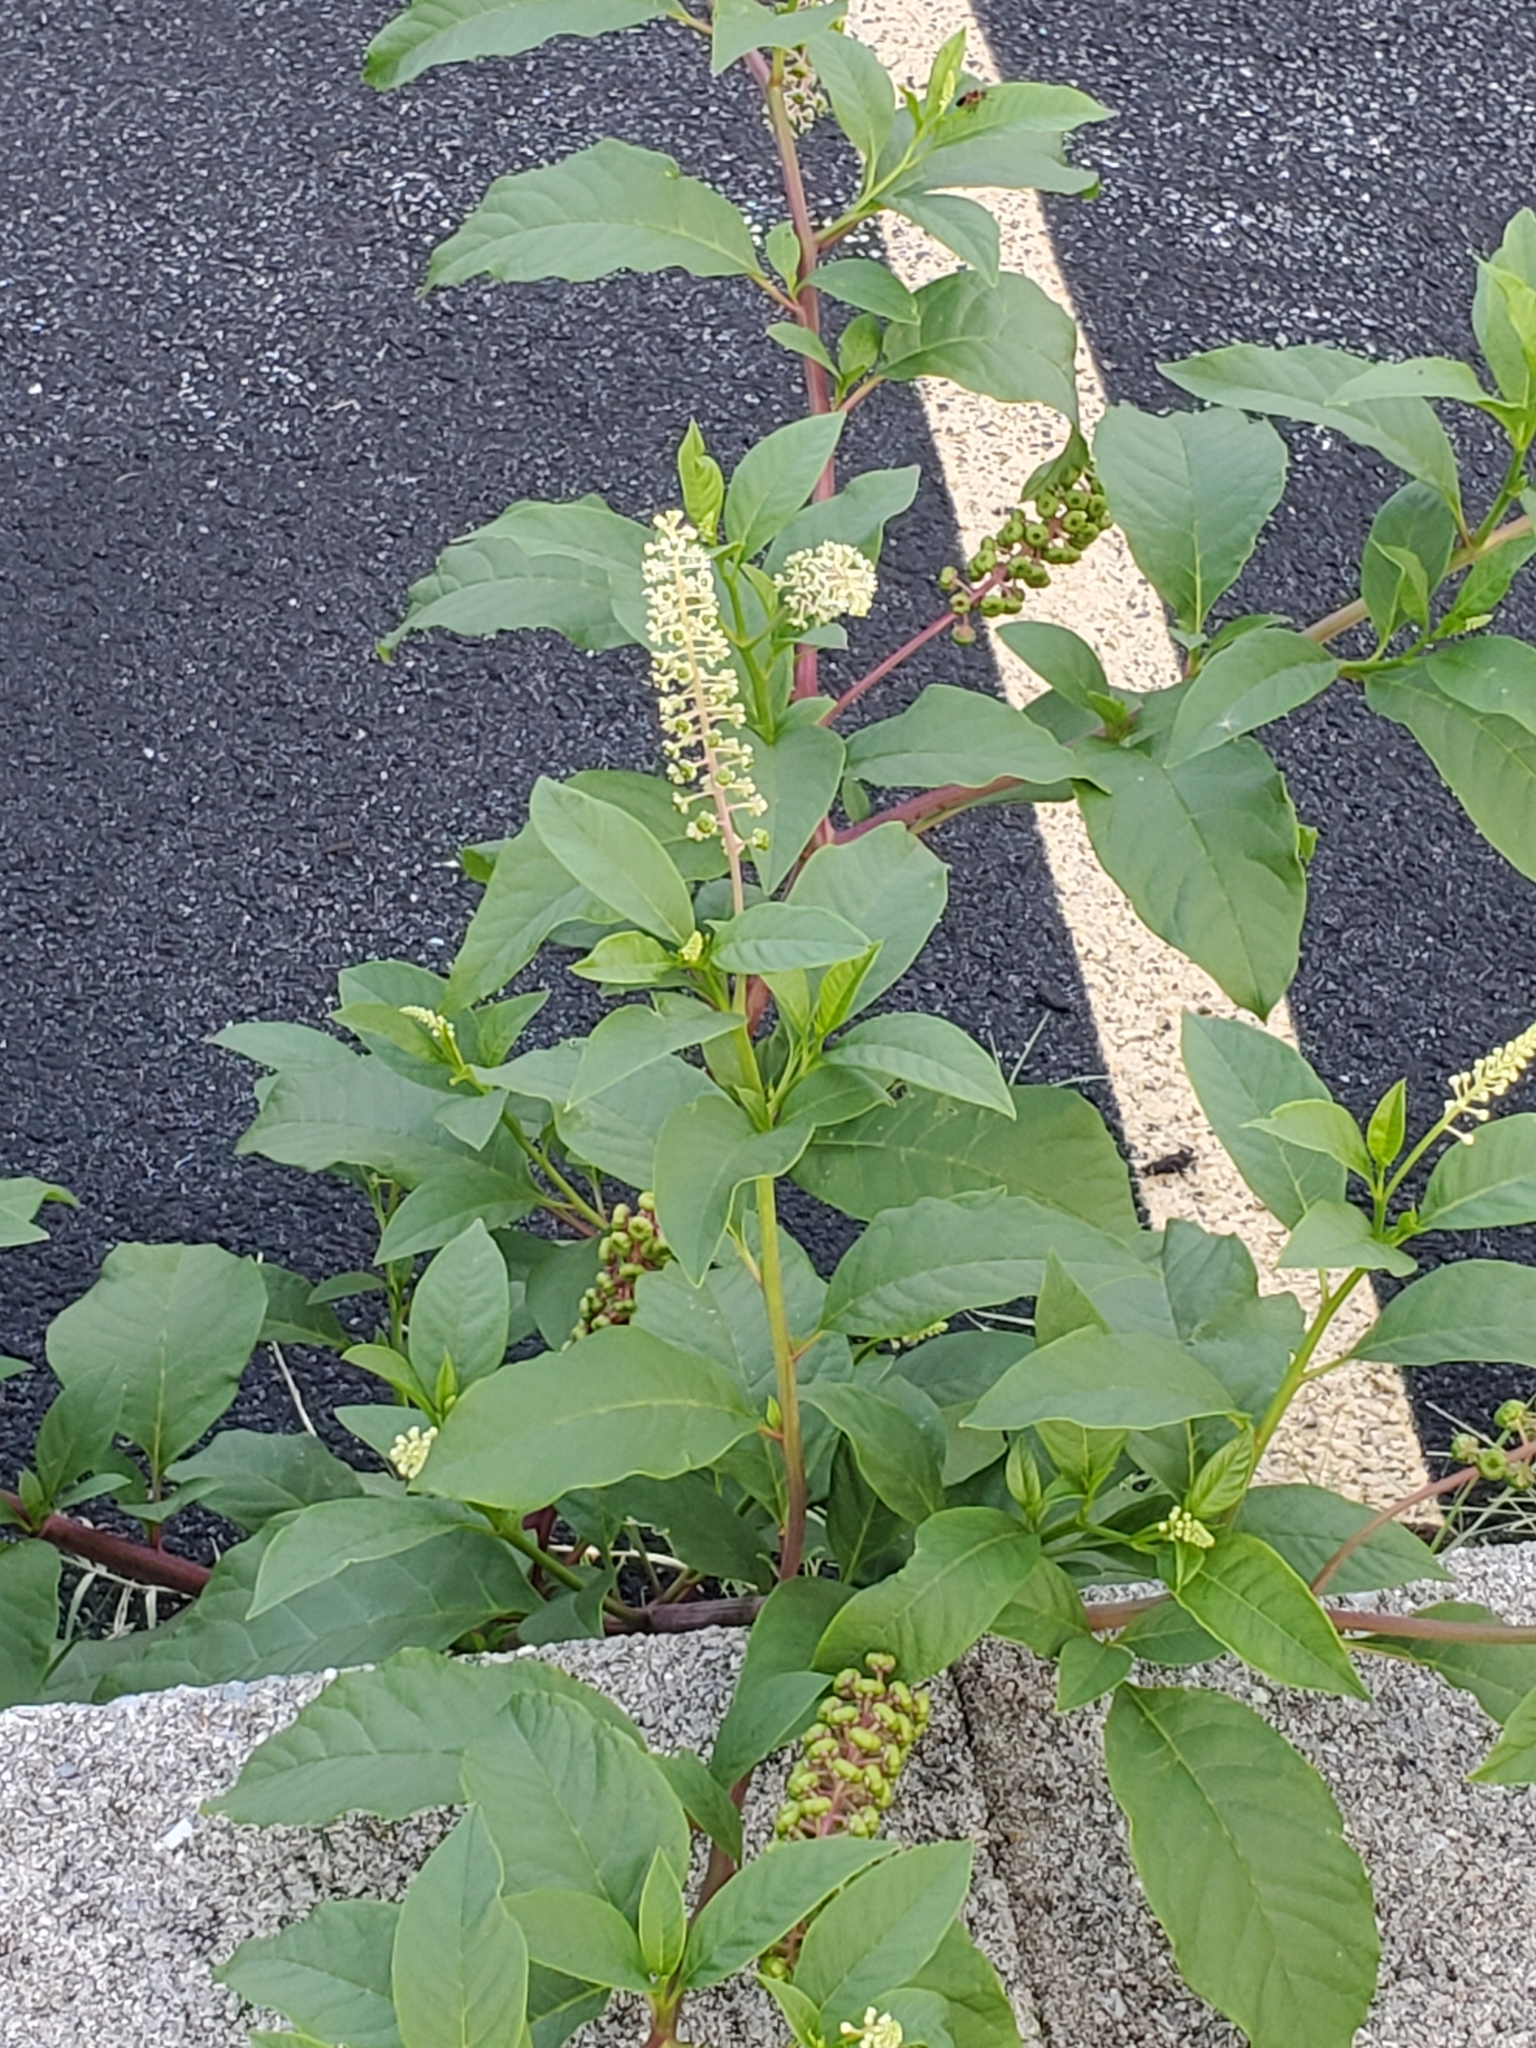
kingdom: Plantae
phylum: Tracheophyta
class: Magnoliopsida
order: Caryophyllales
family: Phytolaccaceae
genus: Phytolacca
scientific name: Phytolacca americana
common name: American pokeweed
